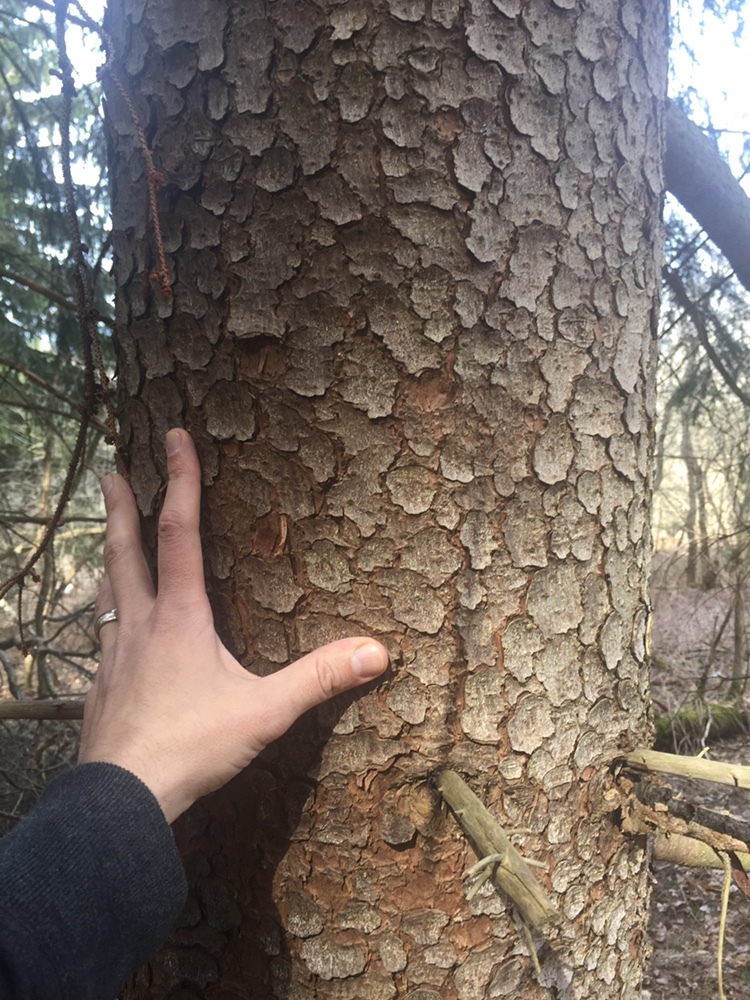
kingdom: Plantae
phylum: Tracheophyta
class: Pinopsida
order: Pinales
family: Pinaceae
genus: Picea
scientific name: Picea abies
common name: Norway spruce
